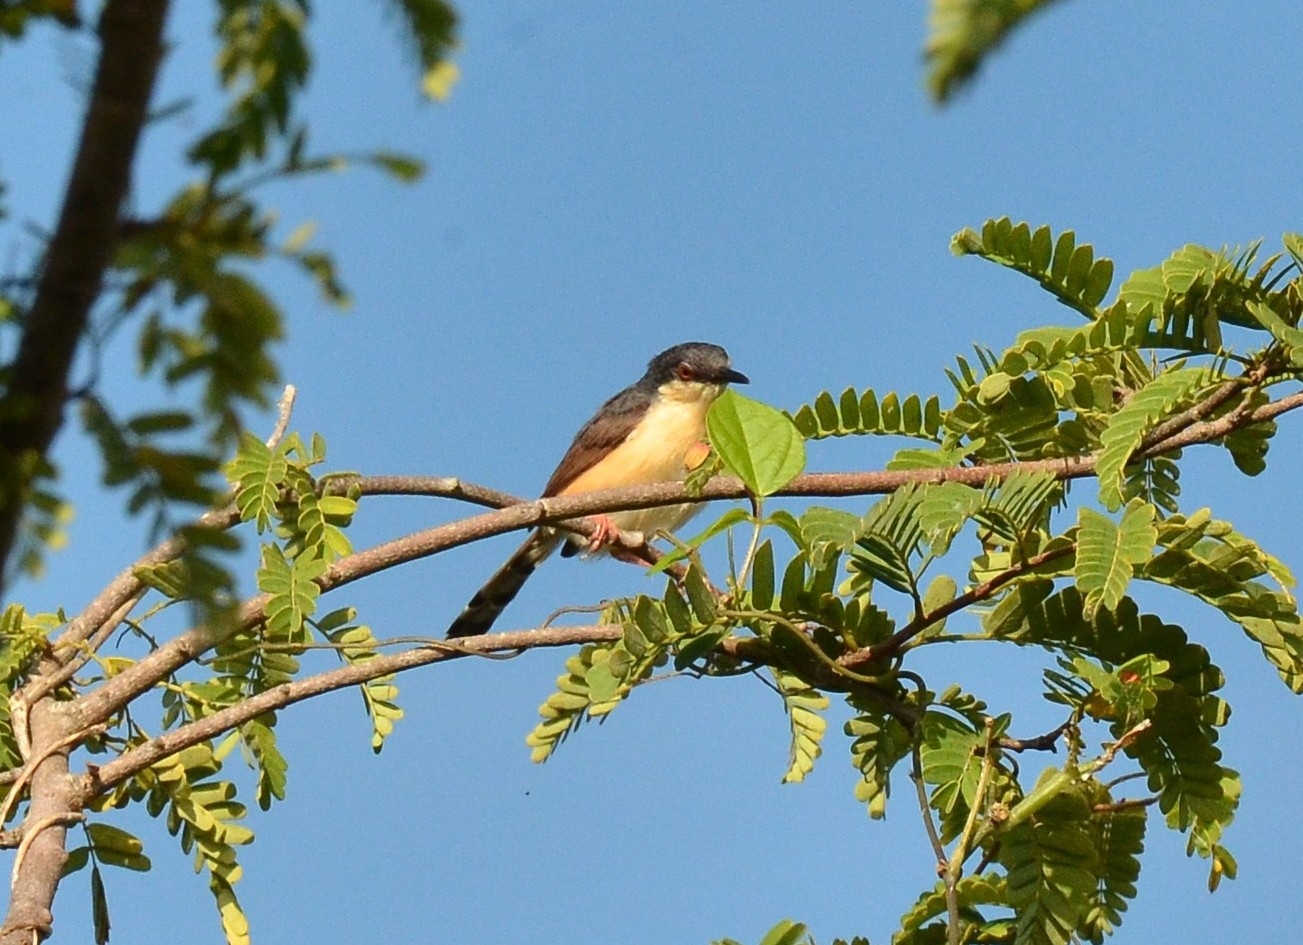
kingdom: Animalia
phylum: Chordata
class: Aves
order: Passeriformes
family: Cisticolidae
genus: Prinia
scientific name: Prinia socialis
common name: Ashy prinia
